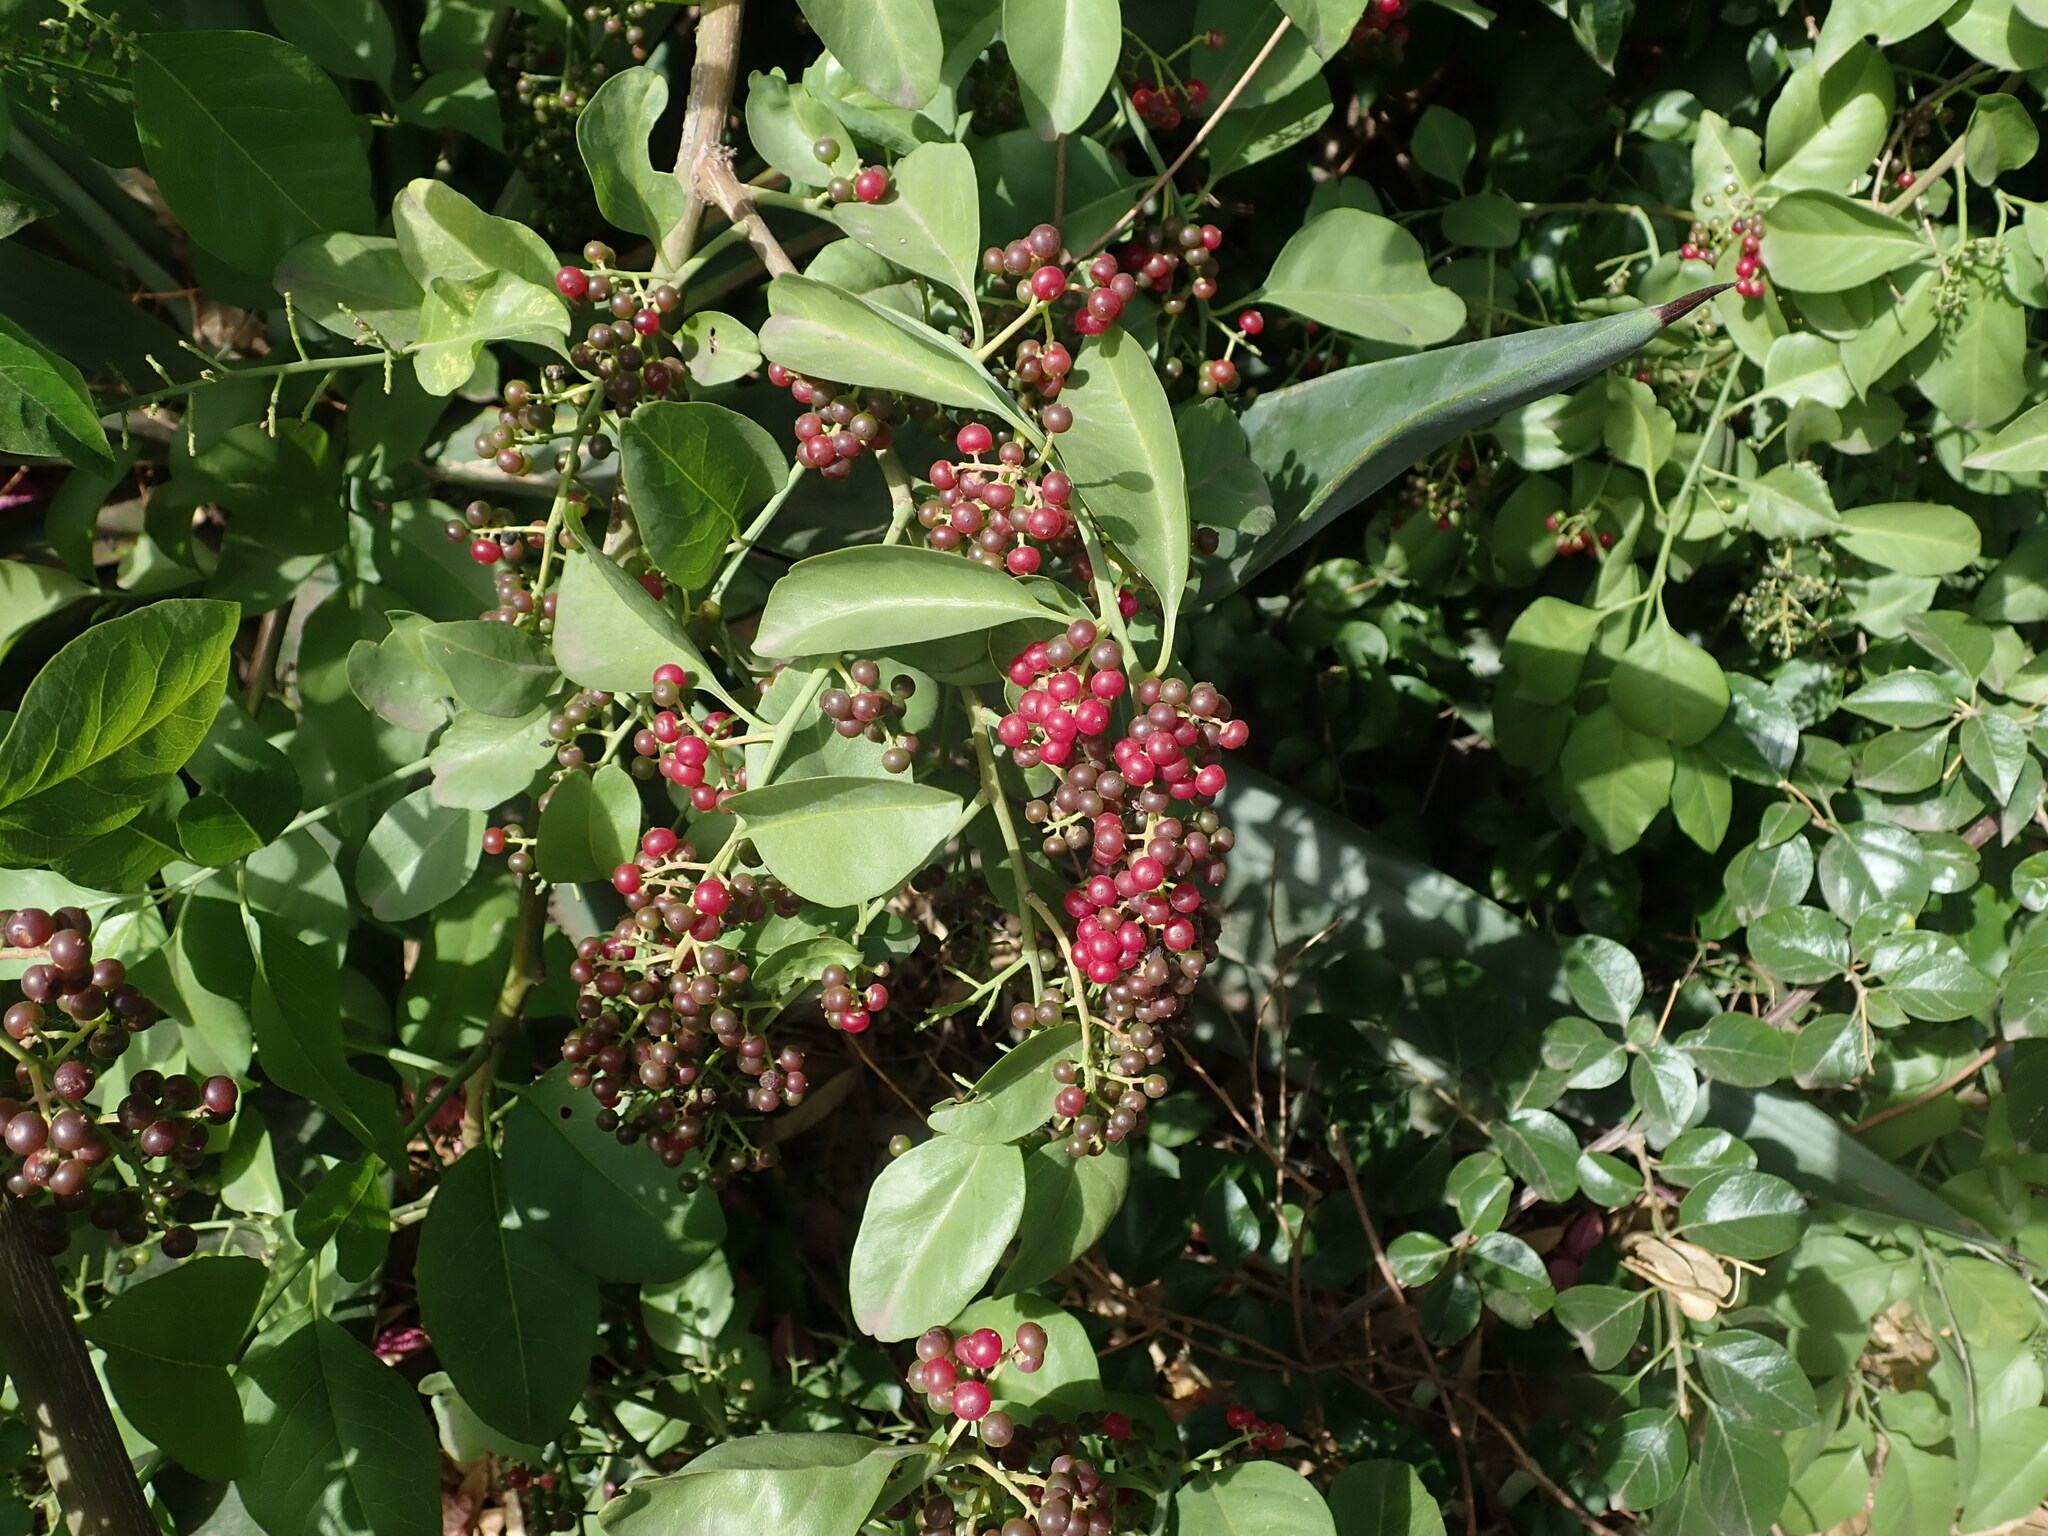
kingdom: Plantae
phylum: Tracheophyta
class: Magnoliopsida
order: Caryophyllales
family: Amaranthaceae
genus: Bosea
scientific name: Bosea yervamora
